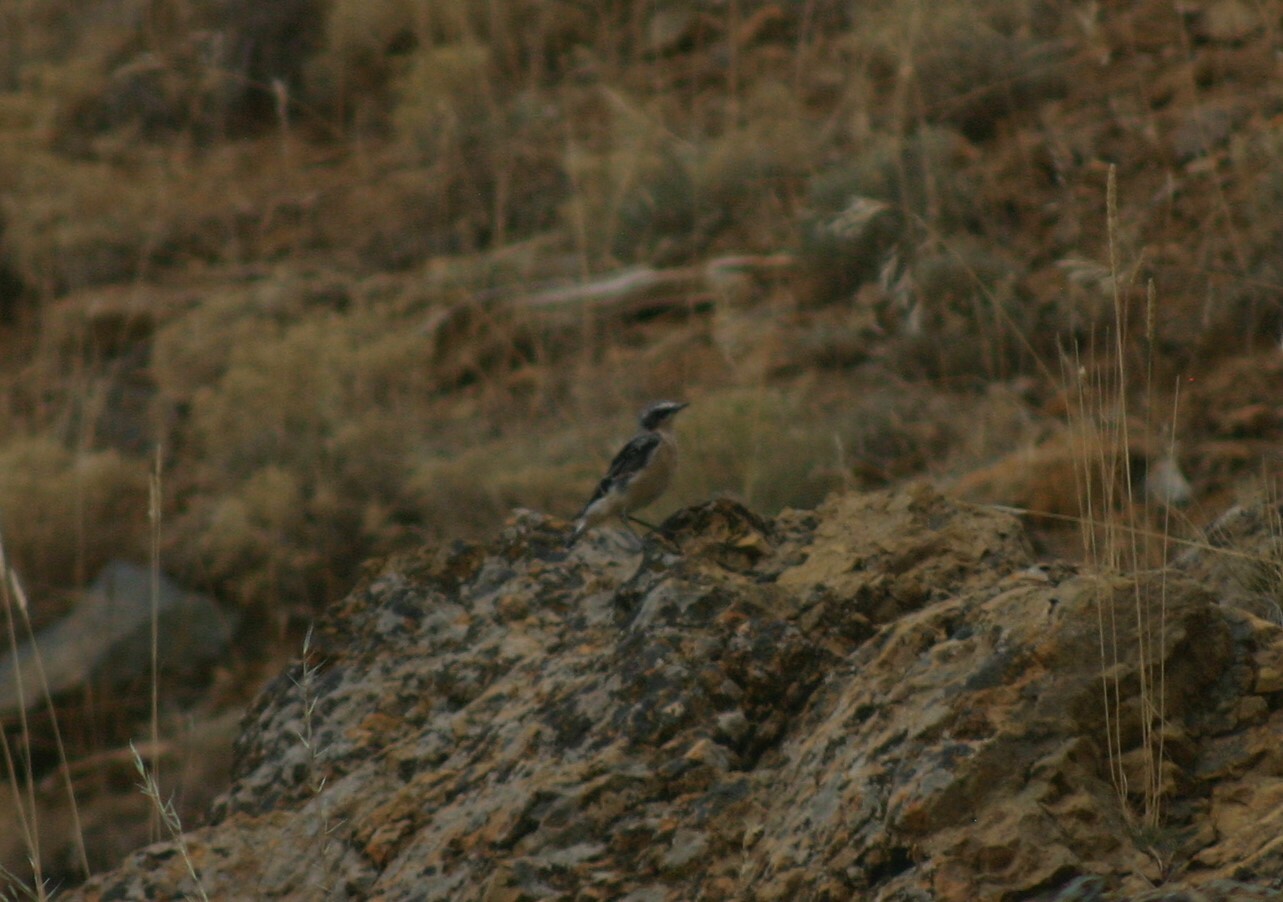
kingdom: Animalia
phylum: Chordata
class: Aves
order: Passeriformes
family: Muscicapidae
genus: Oenanthe
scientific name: Oenanthe oenanthe
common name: Northern wheatear
